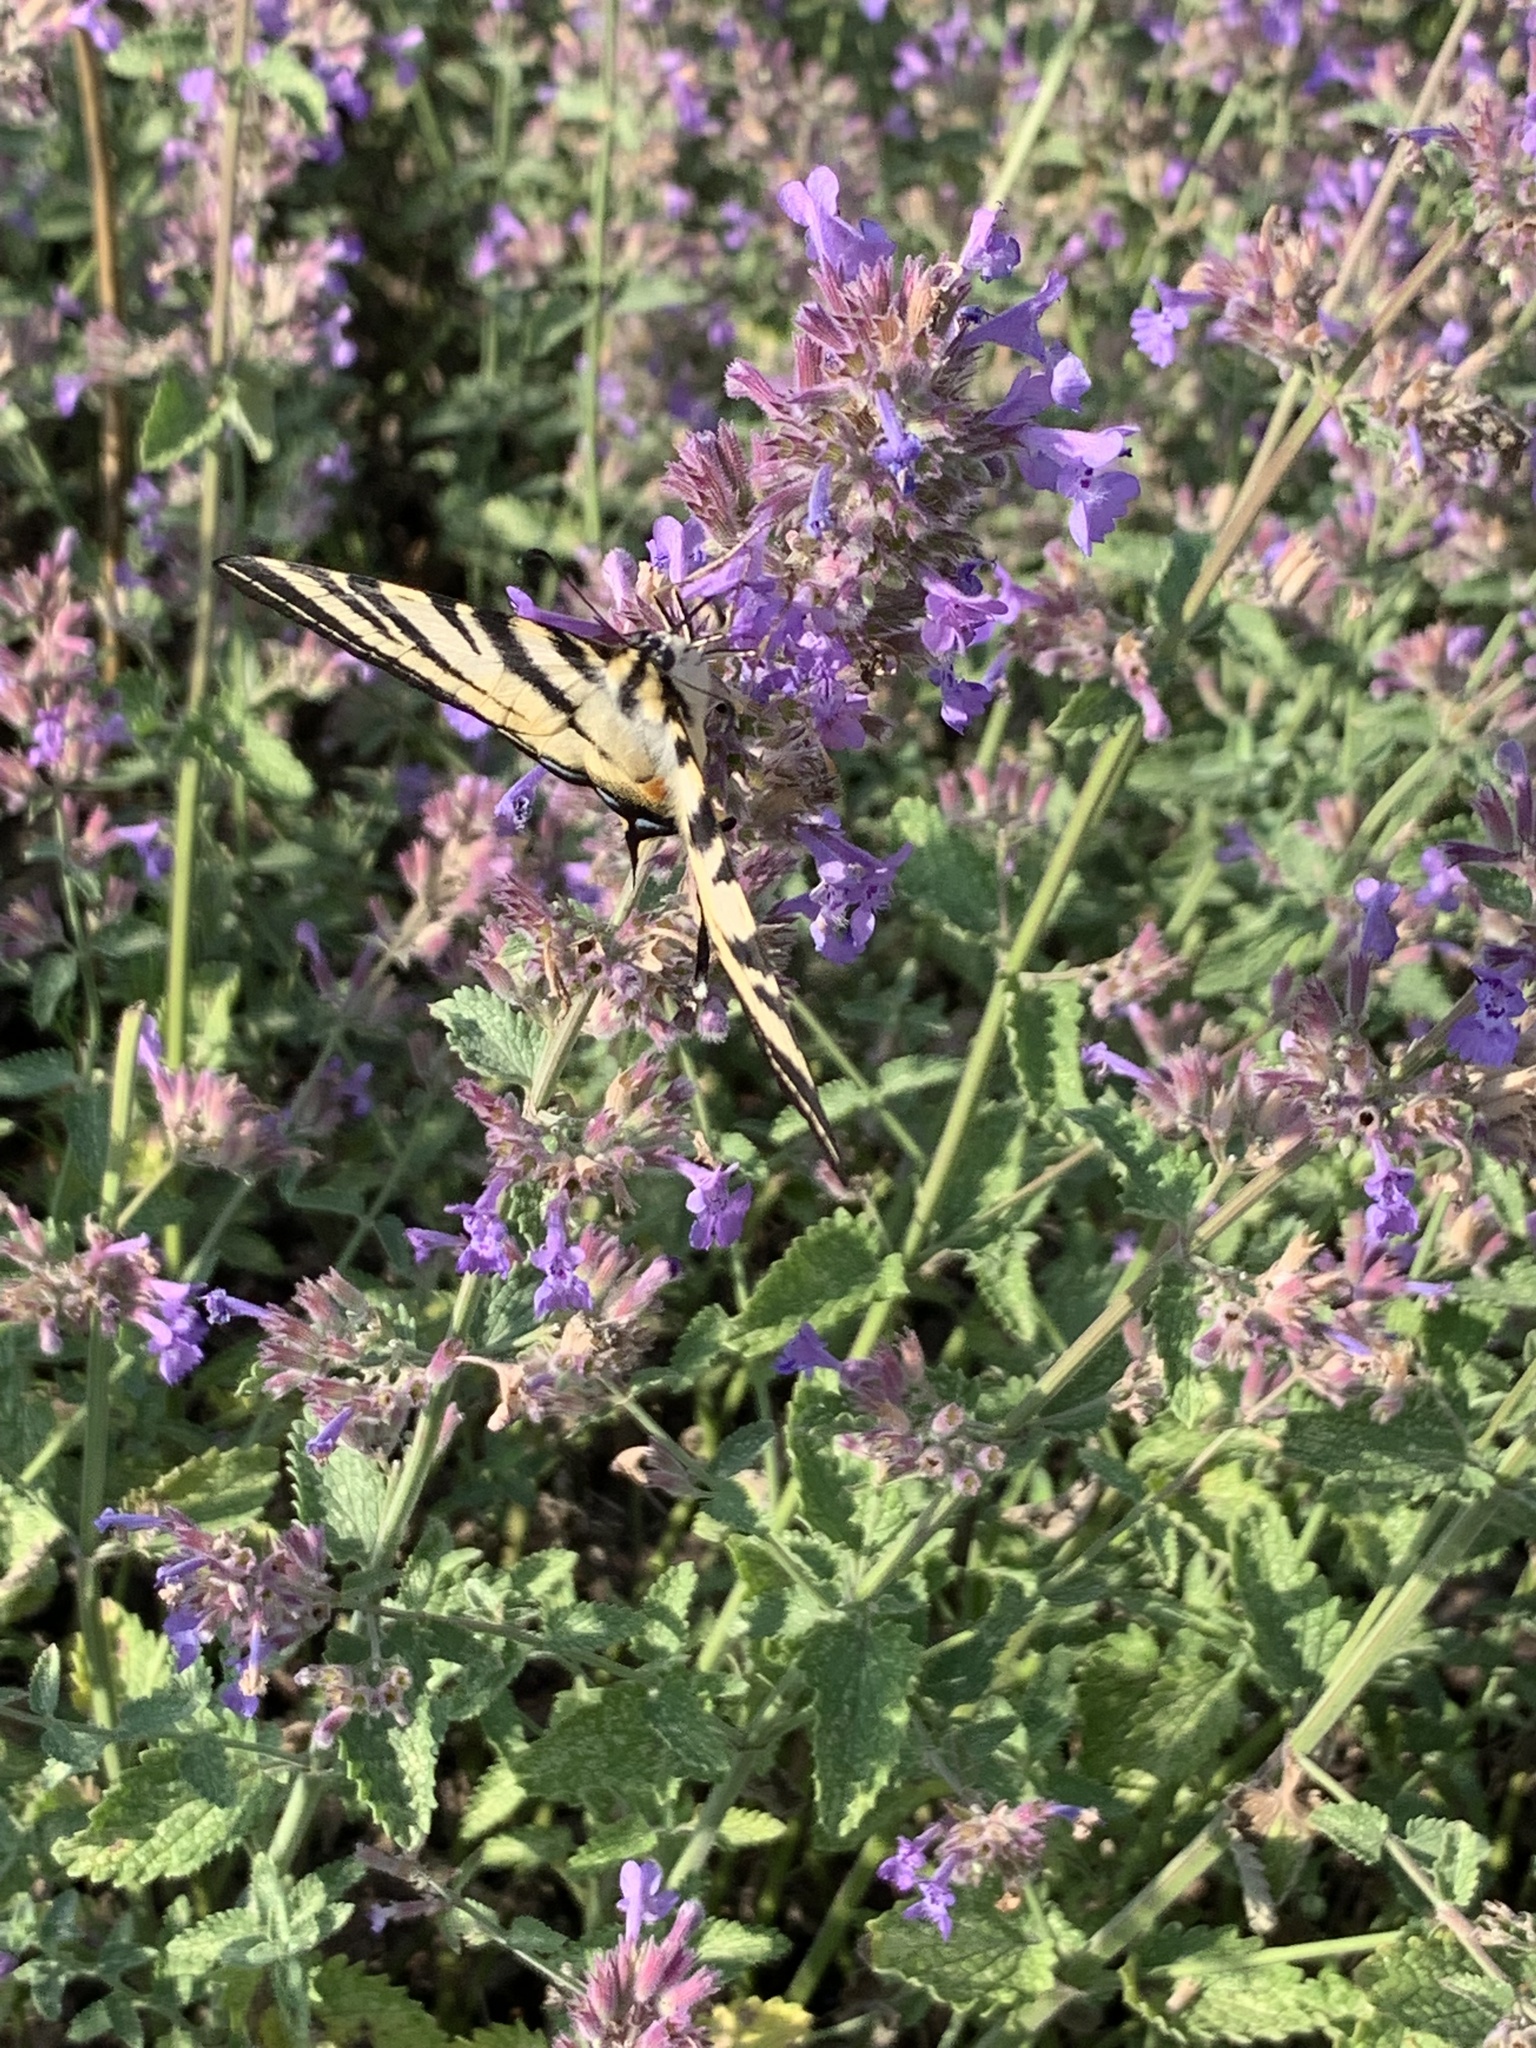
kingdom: Animalia
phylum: Arthropoda
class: Insecta
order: Lepidoptera
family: Papilionidae
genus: Iphiclides
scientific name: Iphiclides podalirius
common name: Scarce swallowtail
